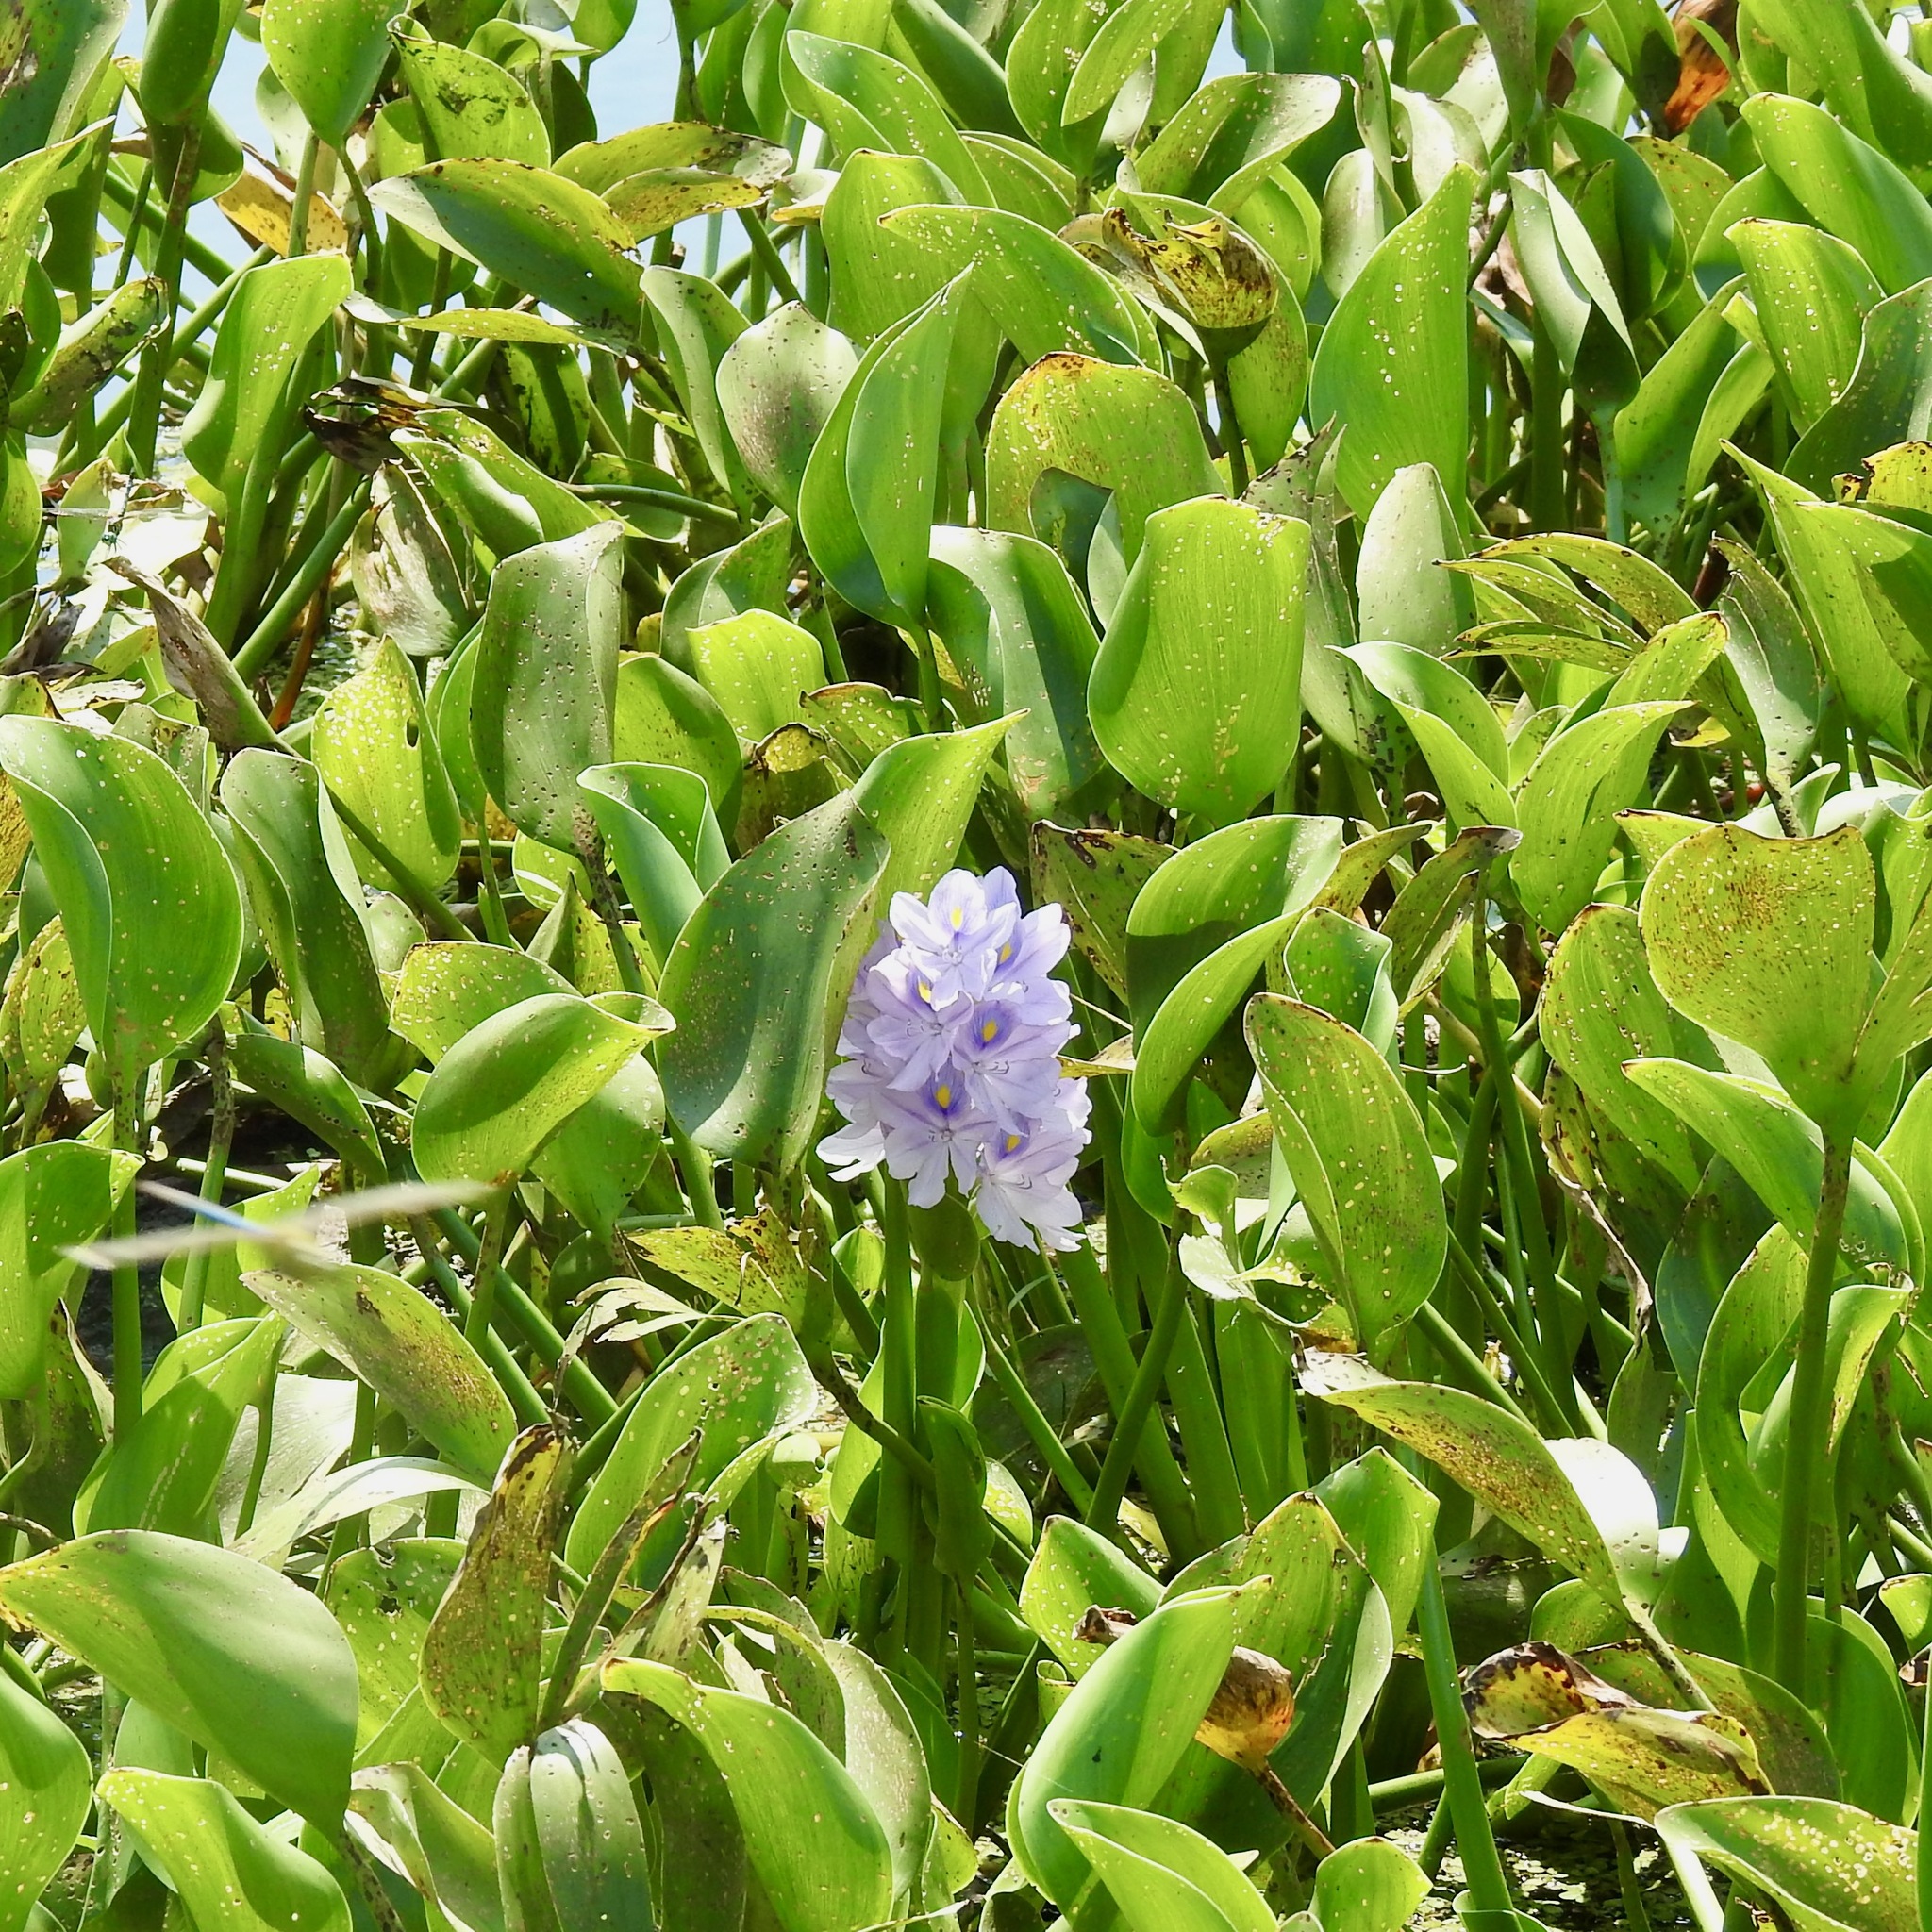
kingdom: Plantae
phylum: Tracheophyta
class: Liliopsida
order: Commelinales
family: Pontederiaceae
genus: Pontederia
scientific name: Pontederia crassipes
